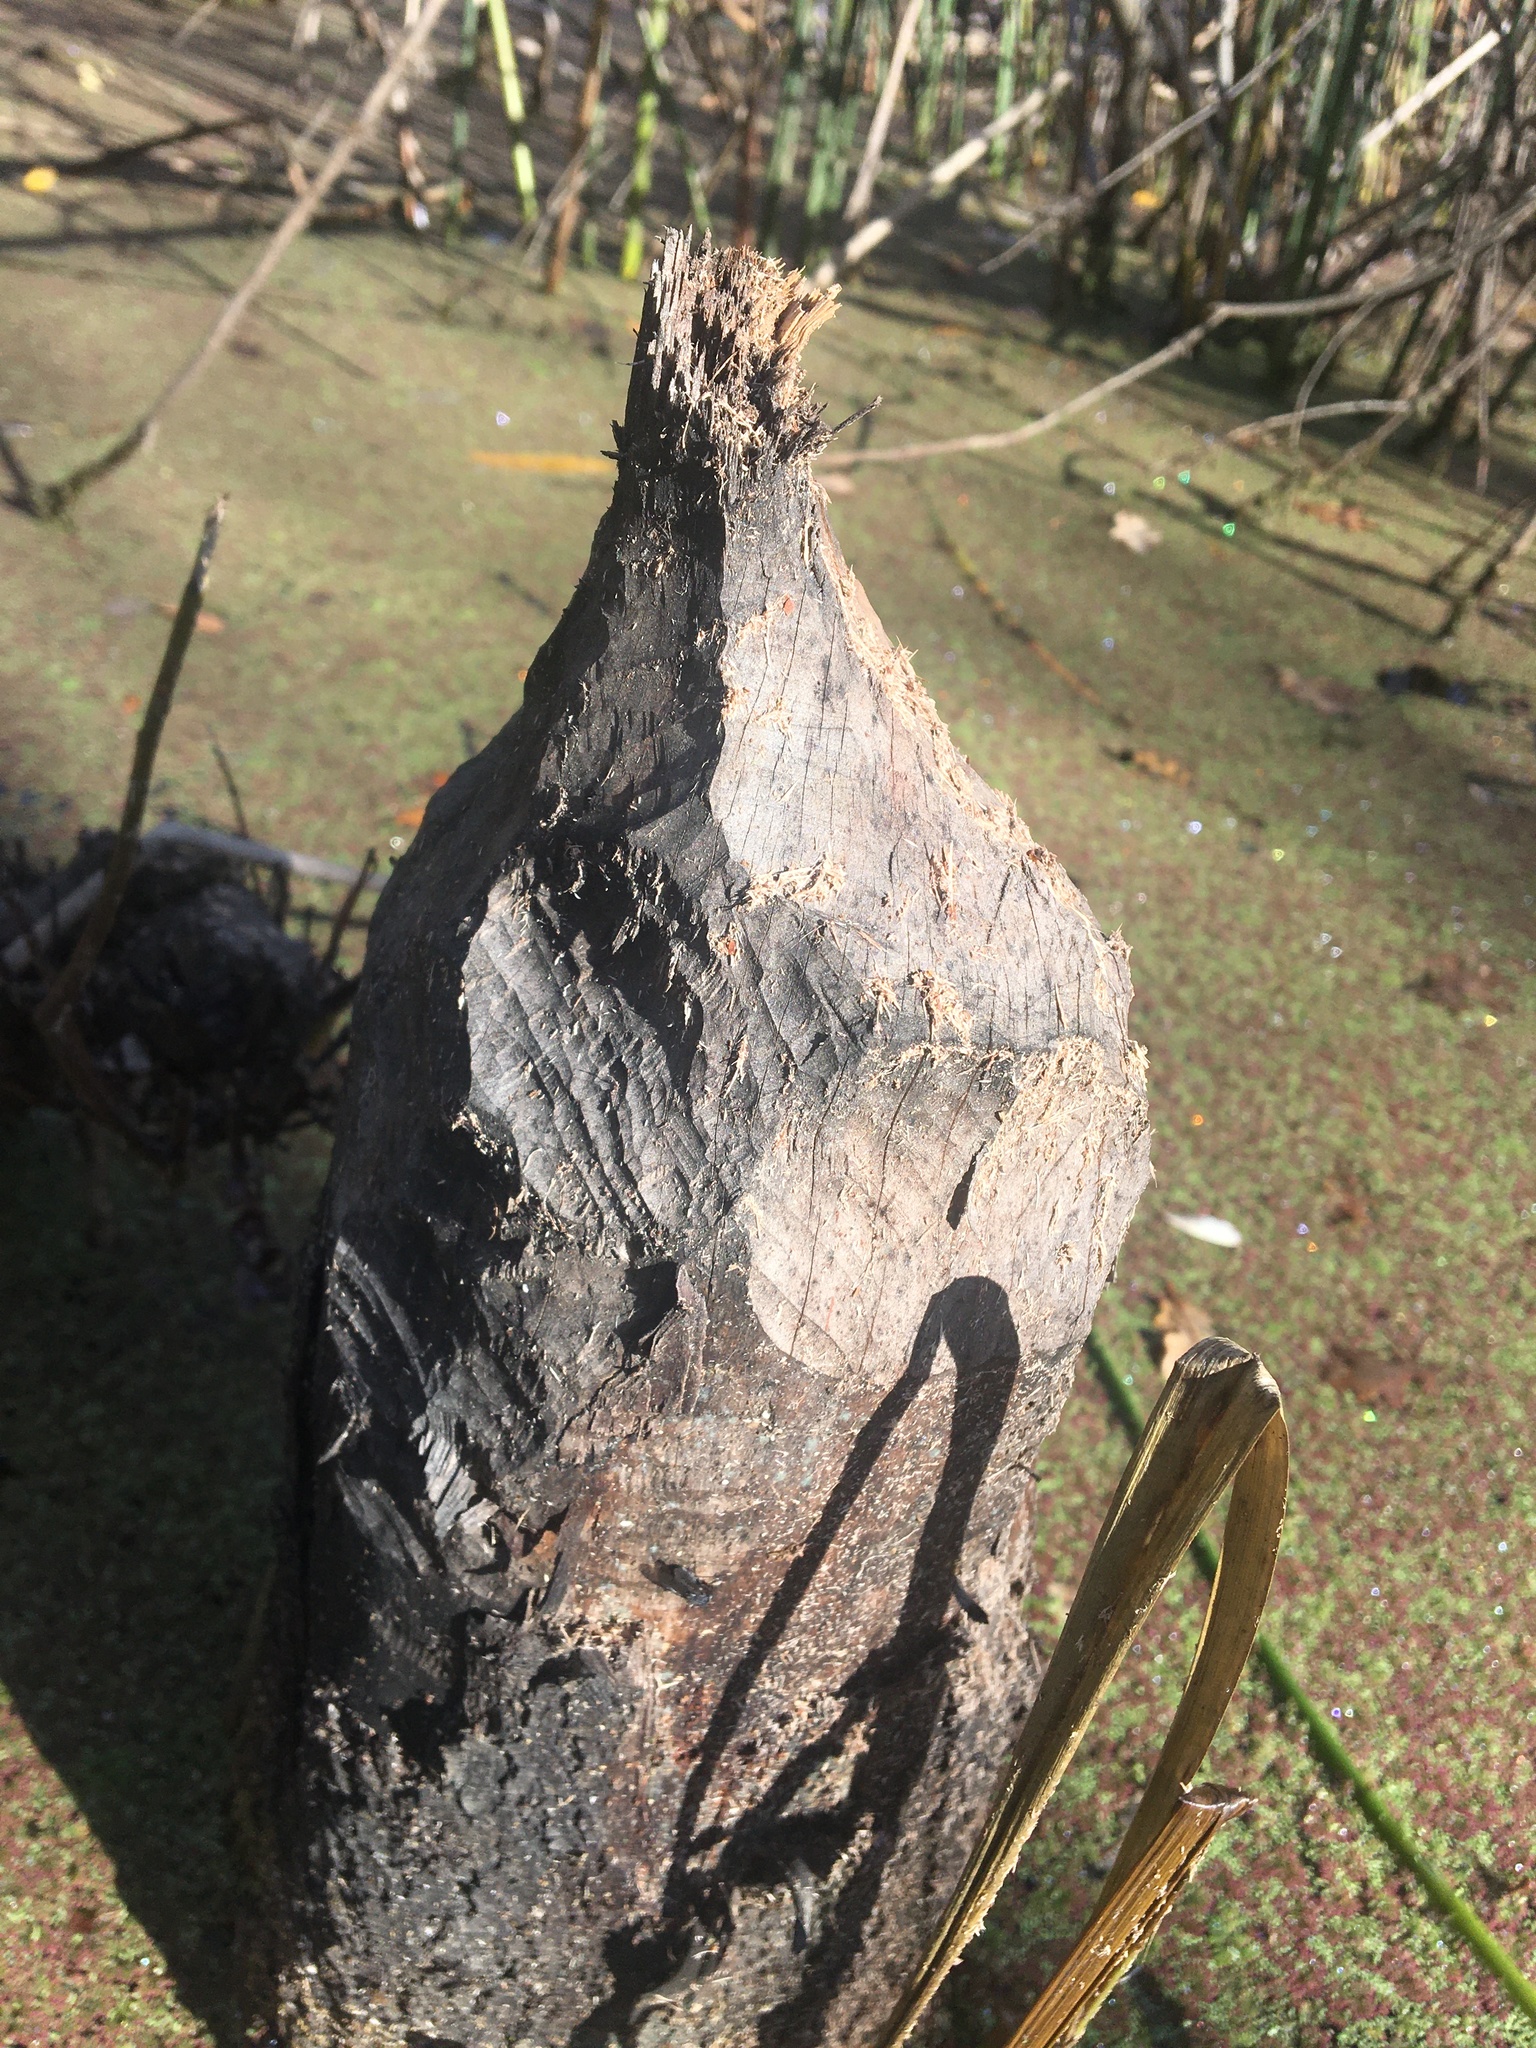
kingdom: Animalia
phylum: Chordata
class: Mammalia
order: Rodentia
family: Castoridae
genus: Castor
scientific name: Castor canadensis
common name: American beaver
